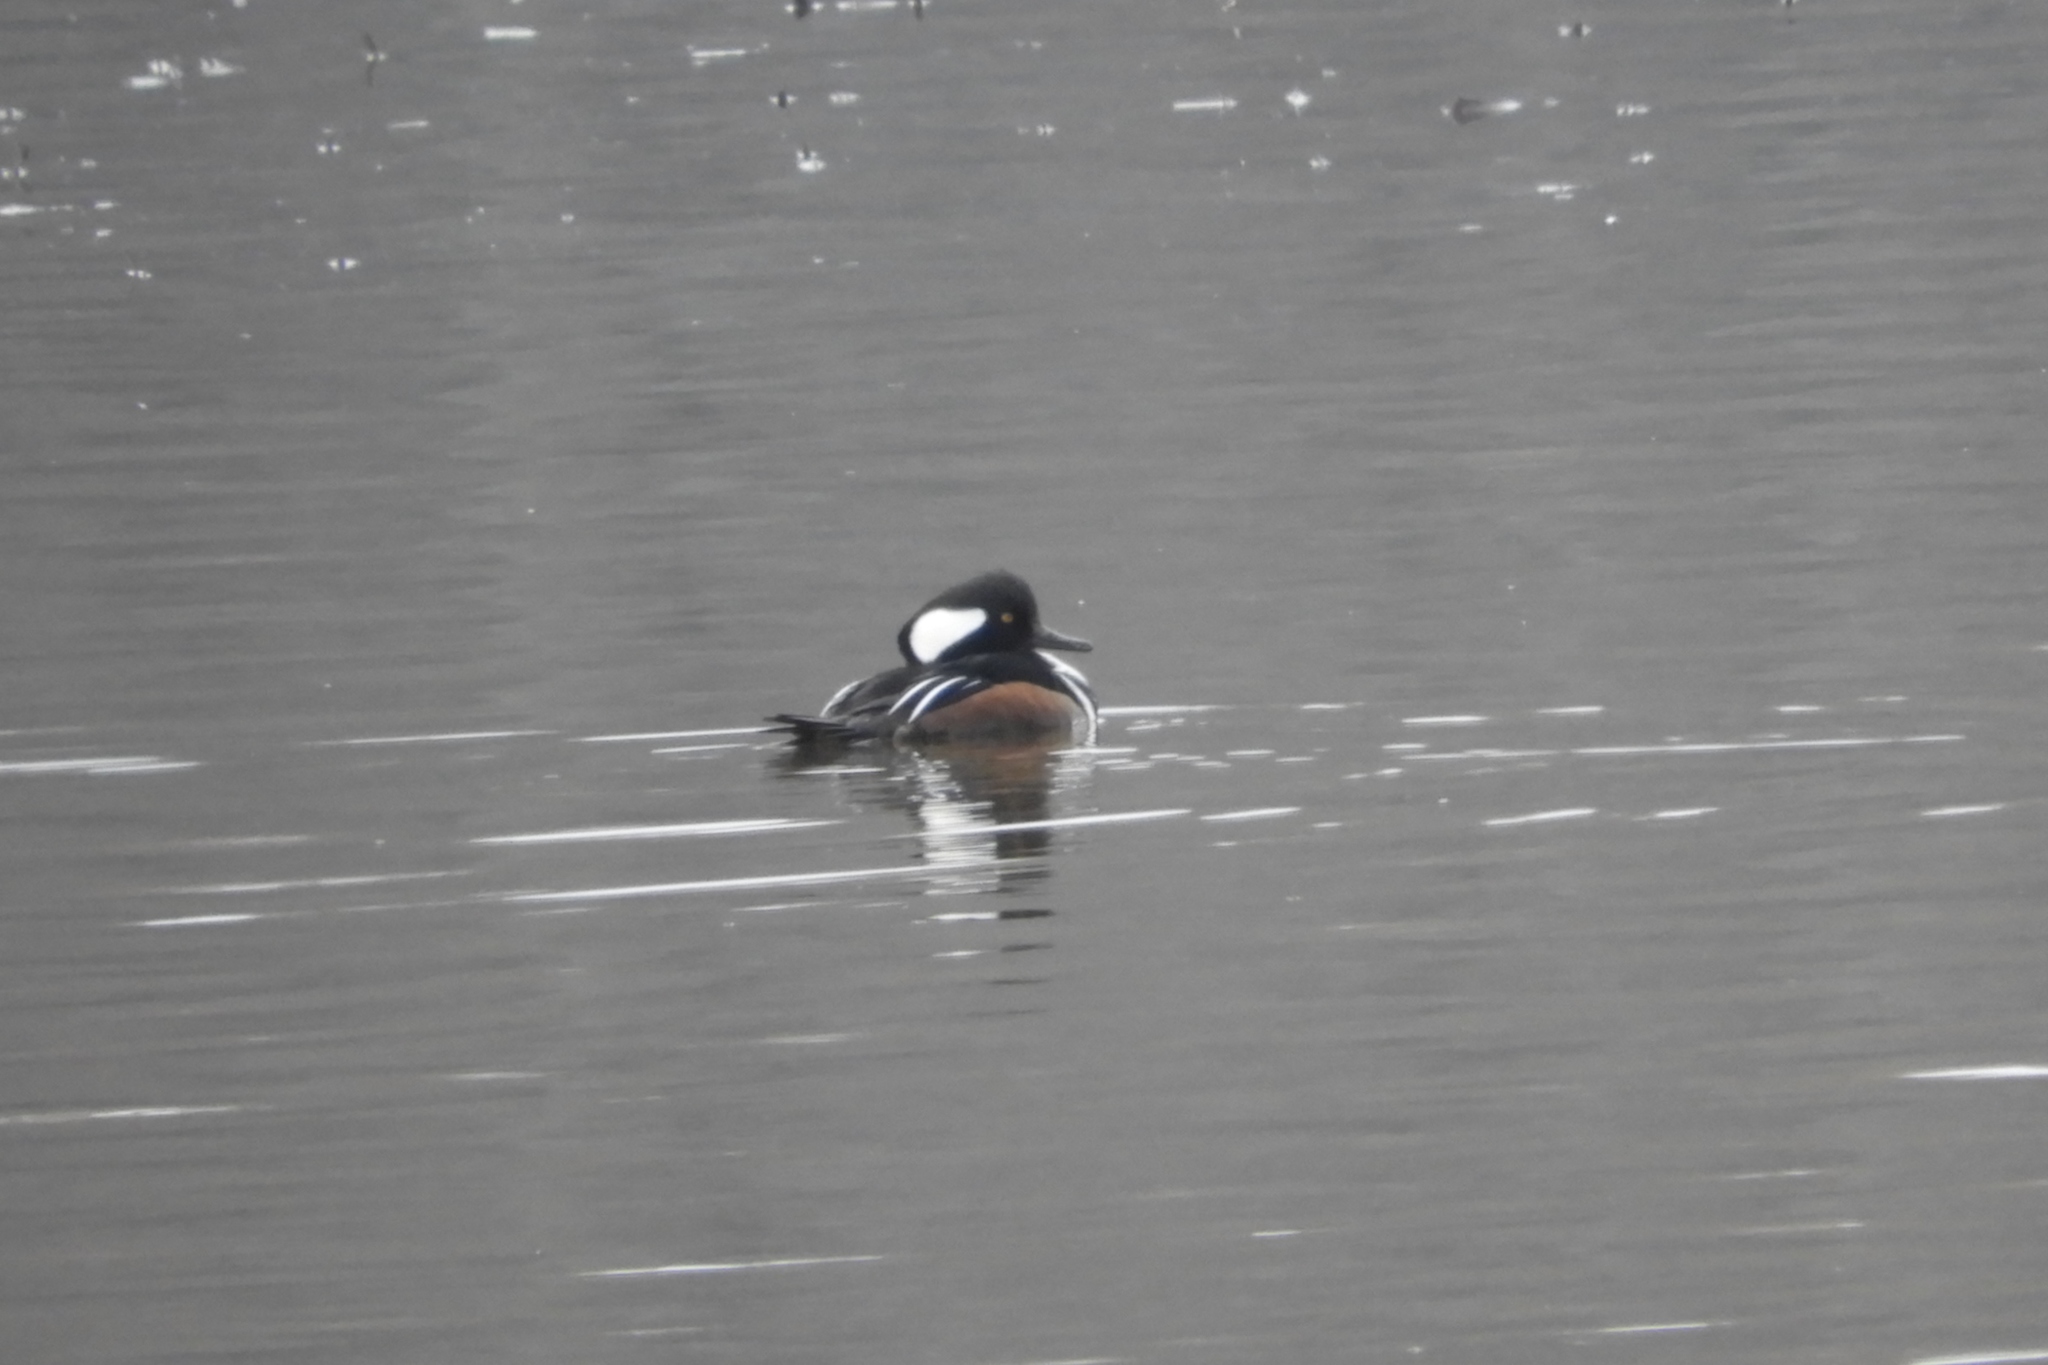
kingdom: Animalia
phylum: Chordata
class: Aves
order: Anseriformes
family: Anatidae
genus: Lophodytes
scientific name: Lophodytes cucullatus
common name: Hooded merganser
